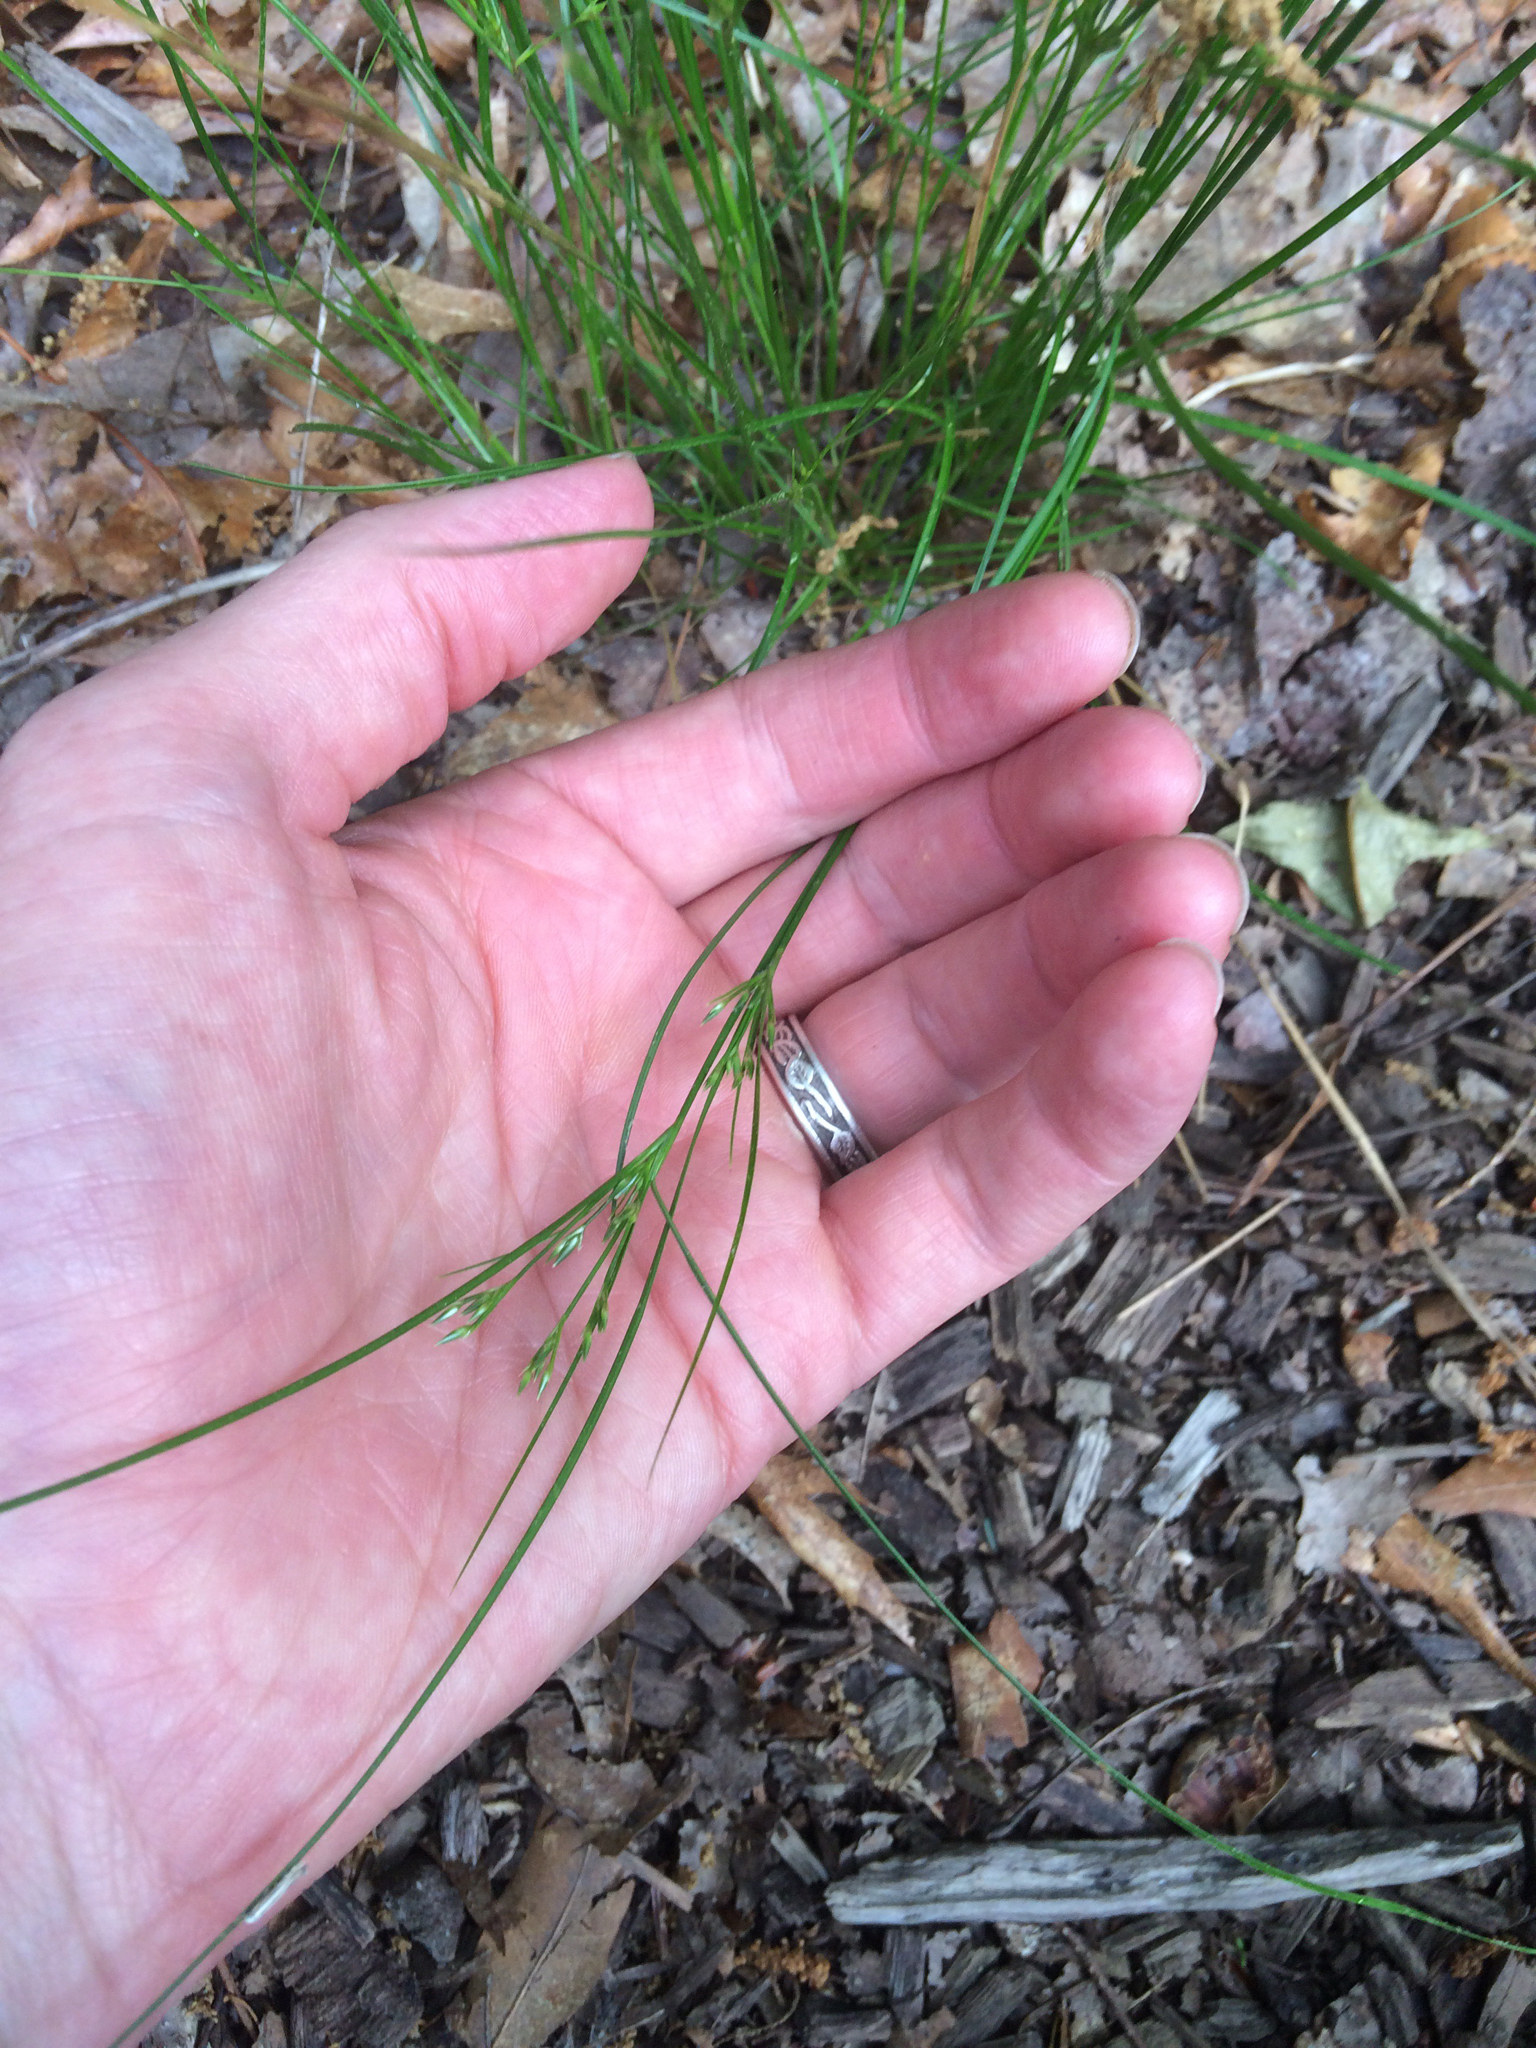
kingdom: Plantae
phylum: Tracheophyta
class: Liliopsida
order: Poales
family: Juncaceae
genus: Juncus
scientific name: Juncus tenuis
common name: Slender rush
